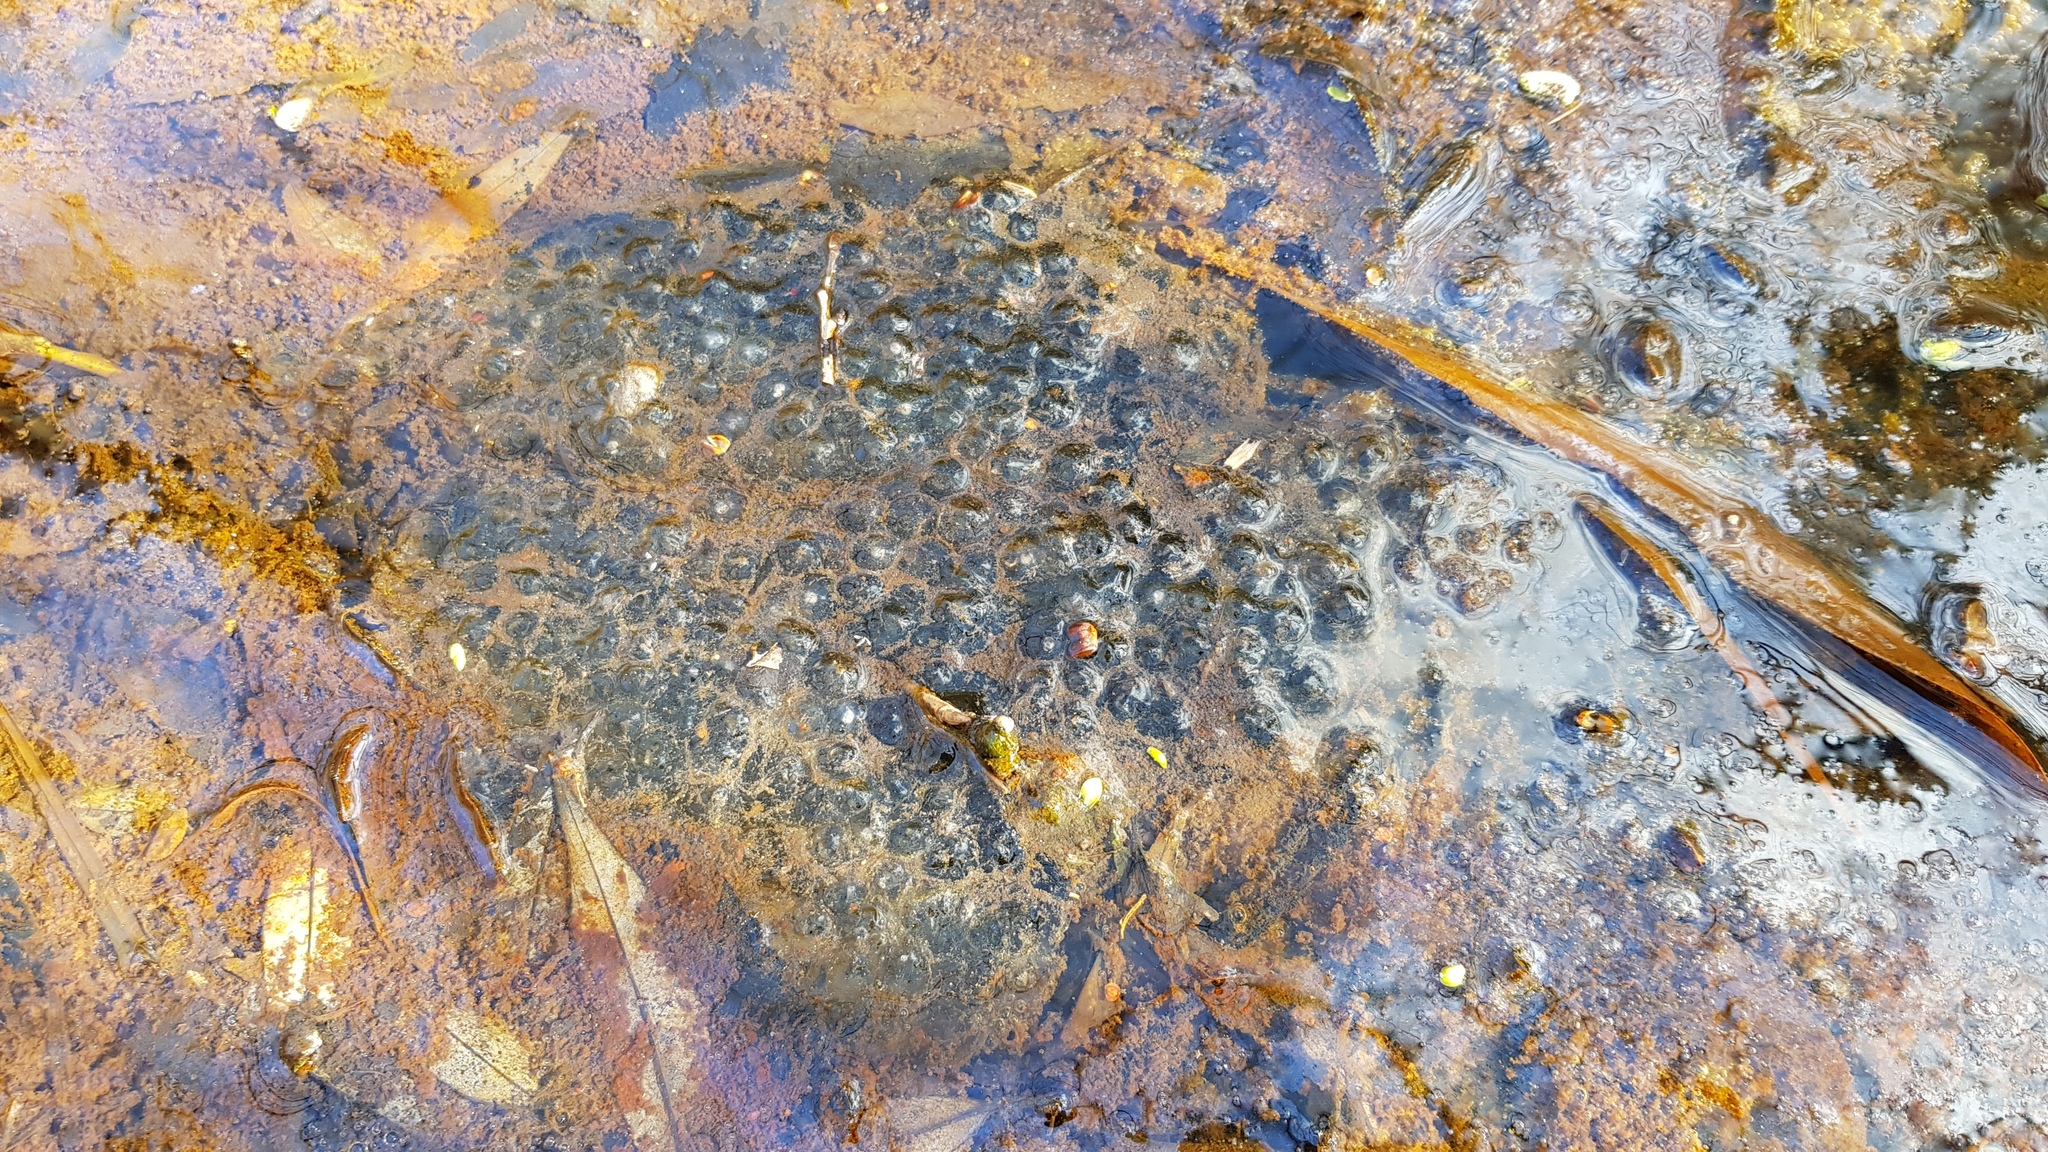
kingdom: Animalia
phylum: Chordata
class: Amphibia
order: Anura
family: Ranidae
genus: Rana
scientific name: Rana uenoi
